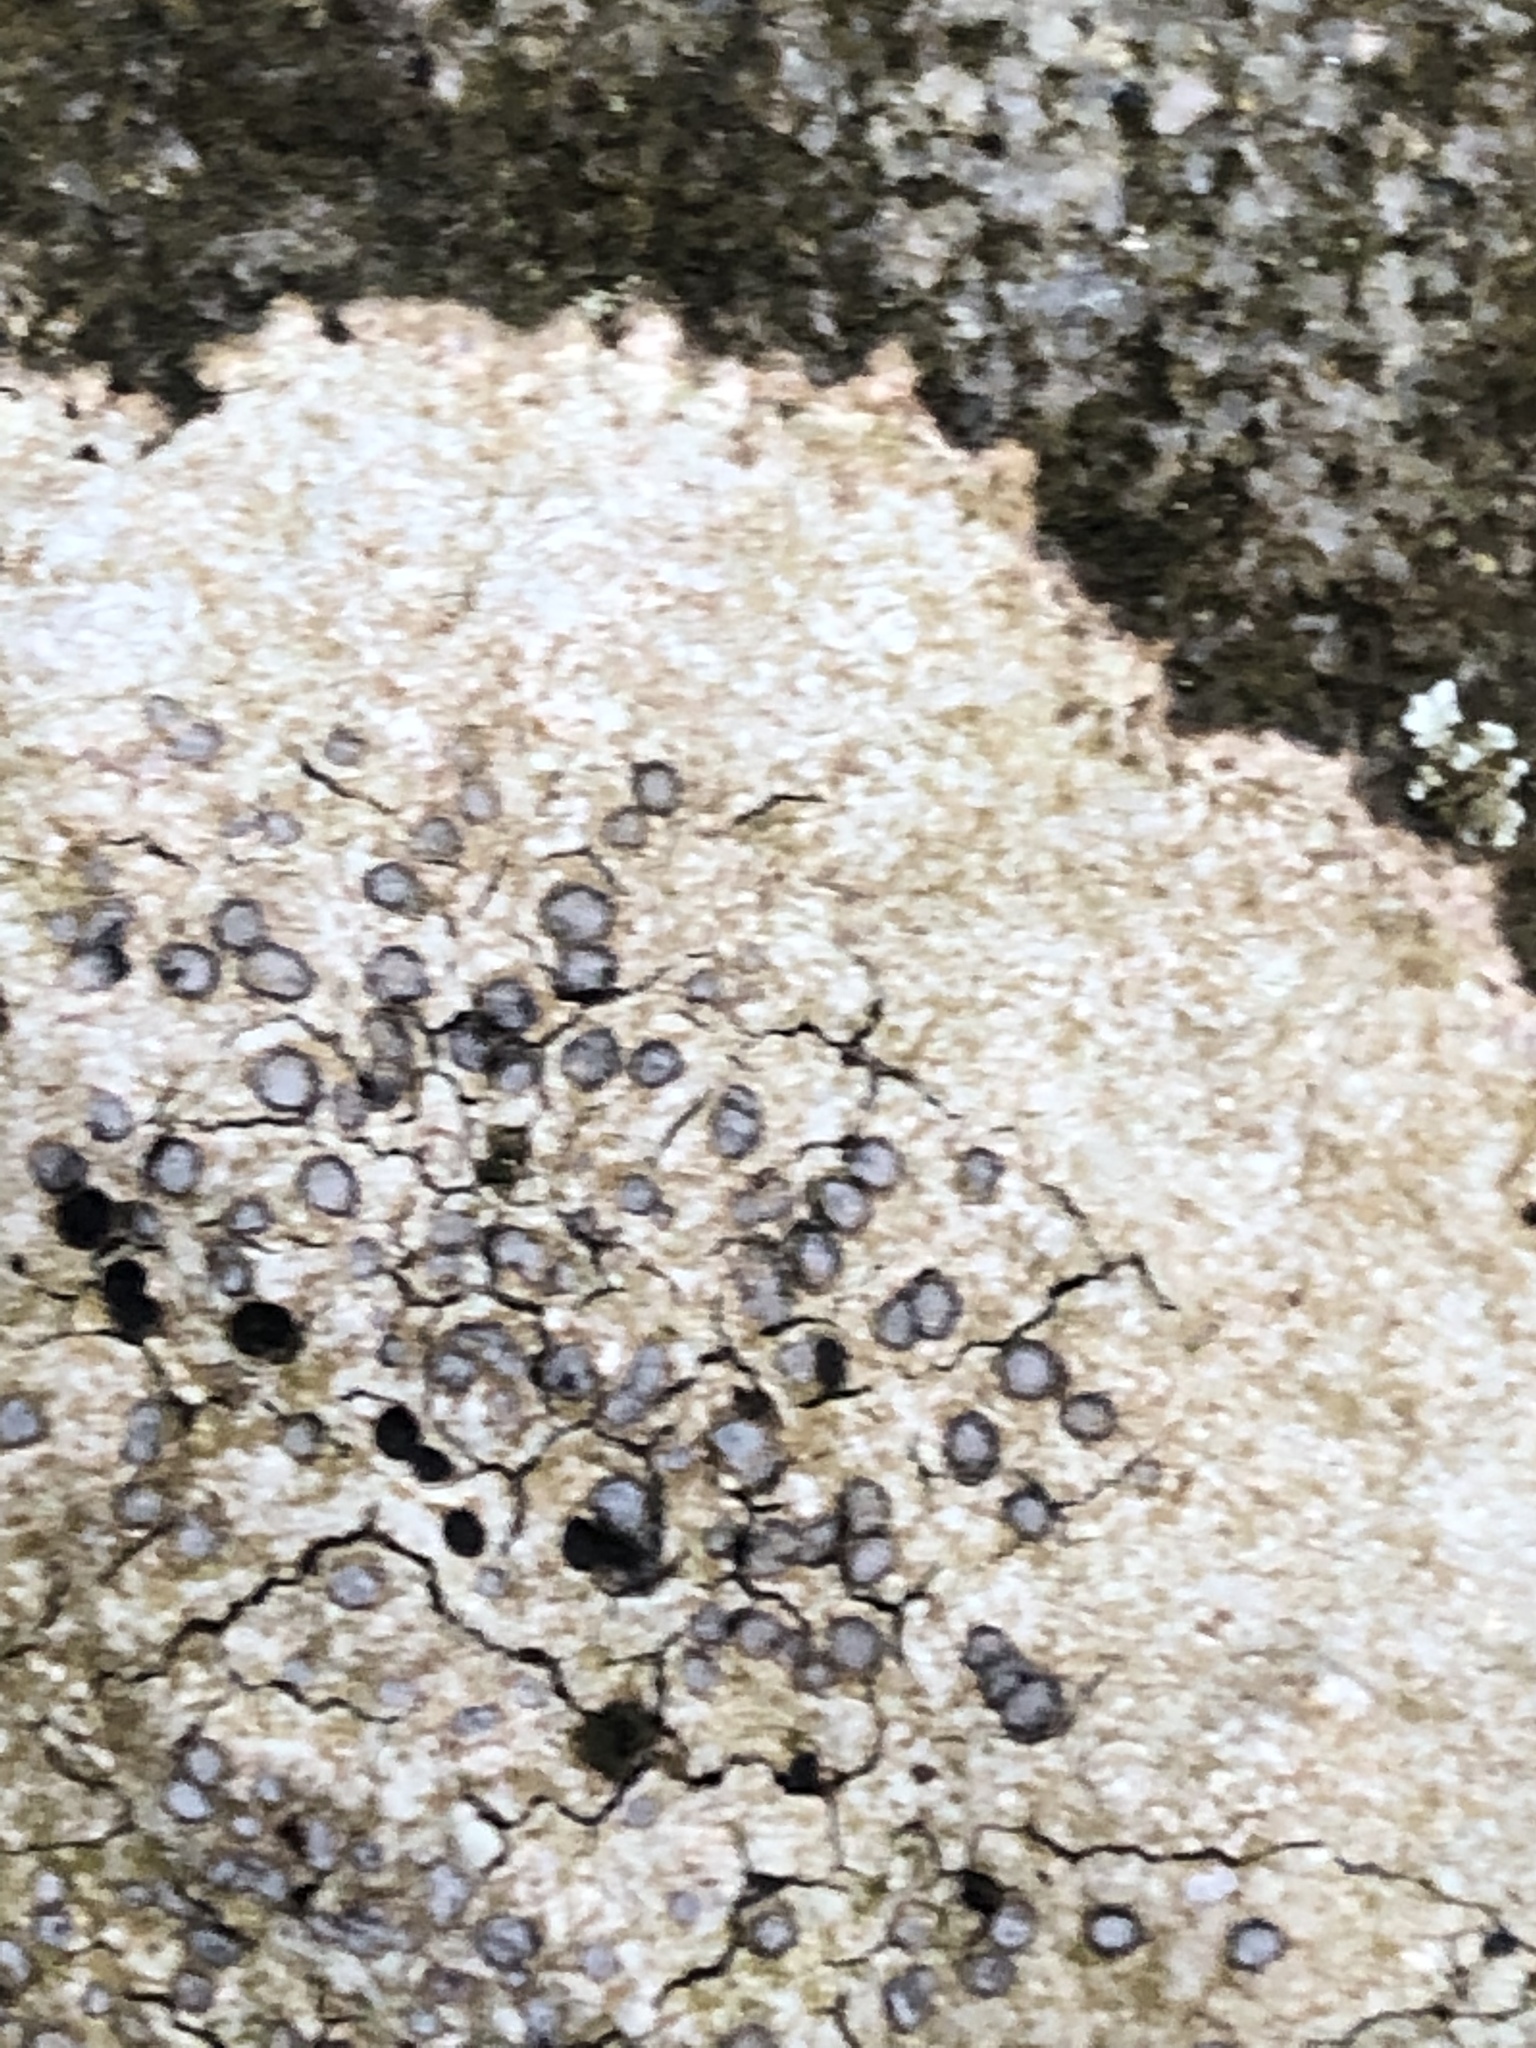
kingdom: Fungi
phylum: Ascomycota
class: Lecanoromycetes
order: Lecideales
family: Lecideaceae
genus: Porpidia
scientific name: Porpidia albocaerulescens
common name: Smokey-eyed boulder lichen
